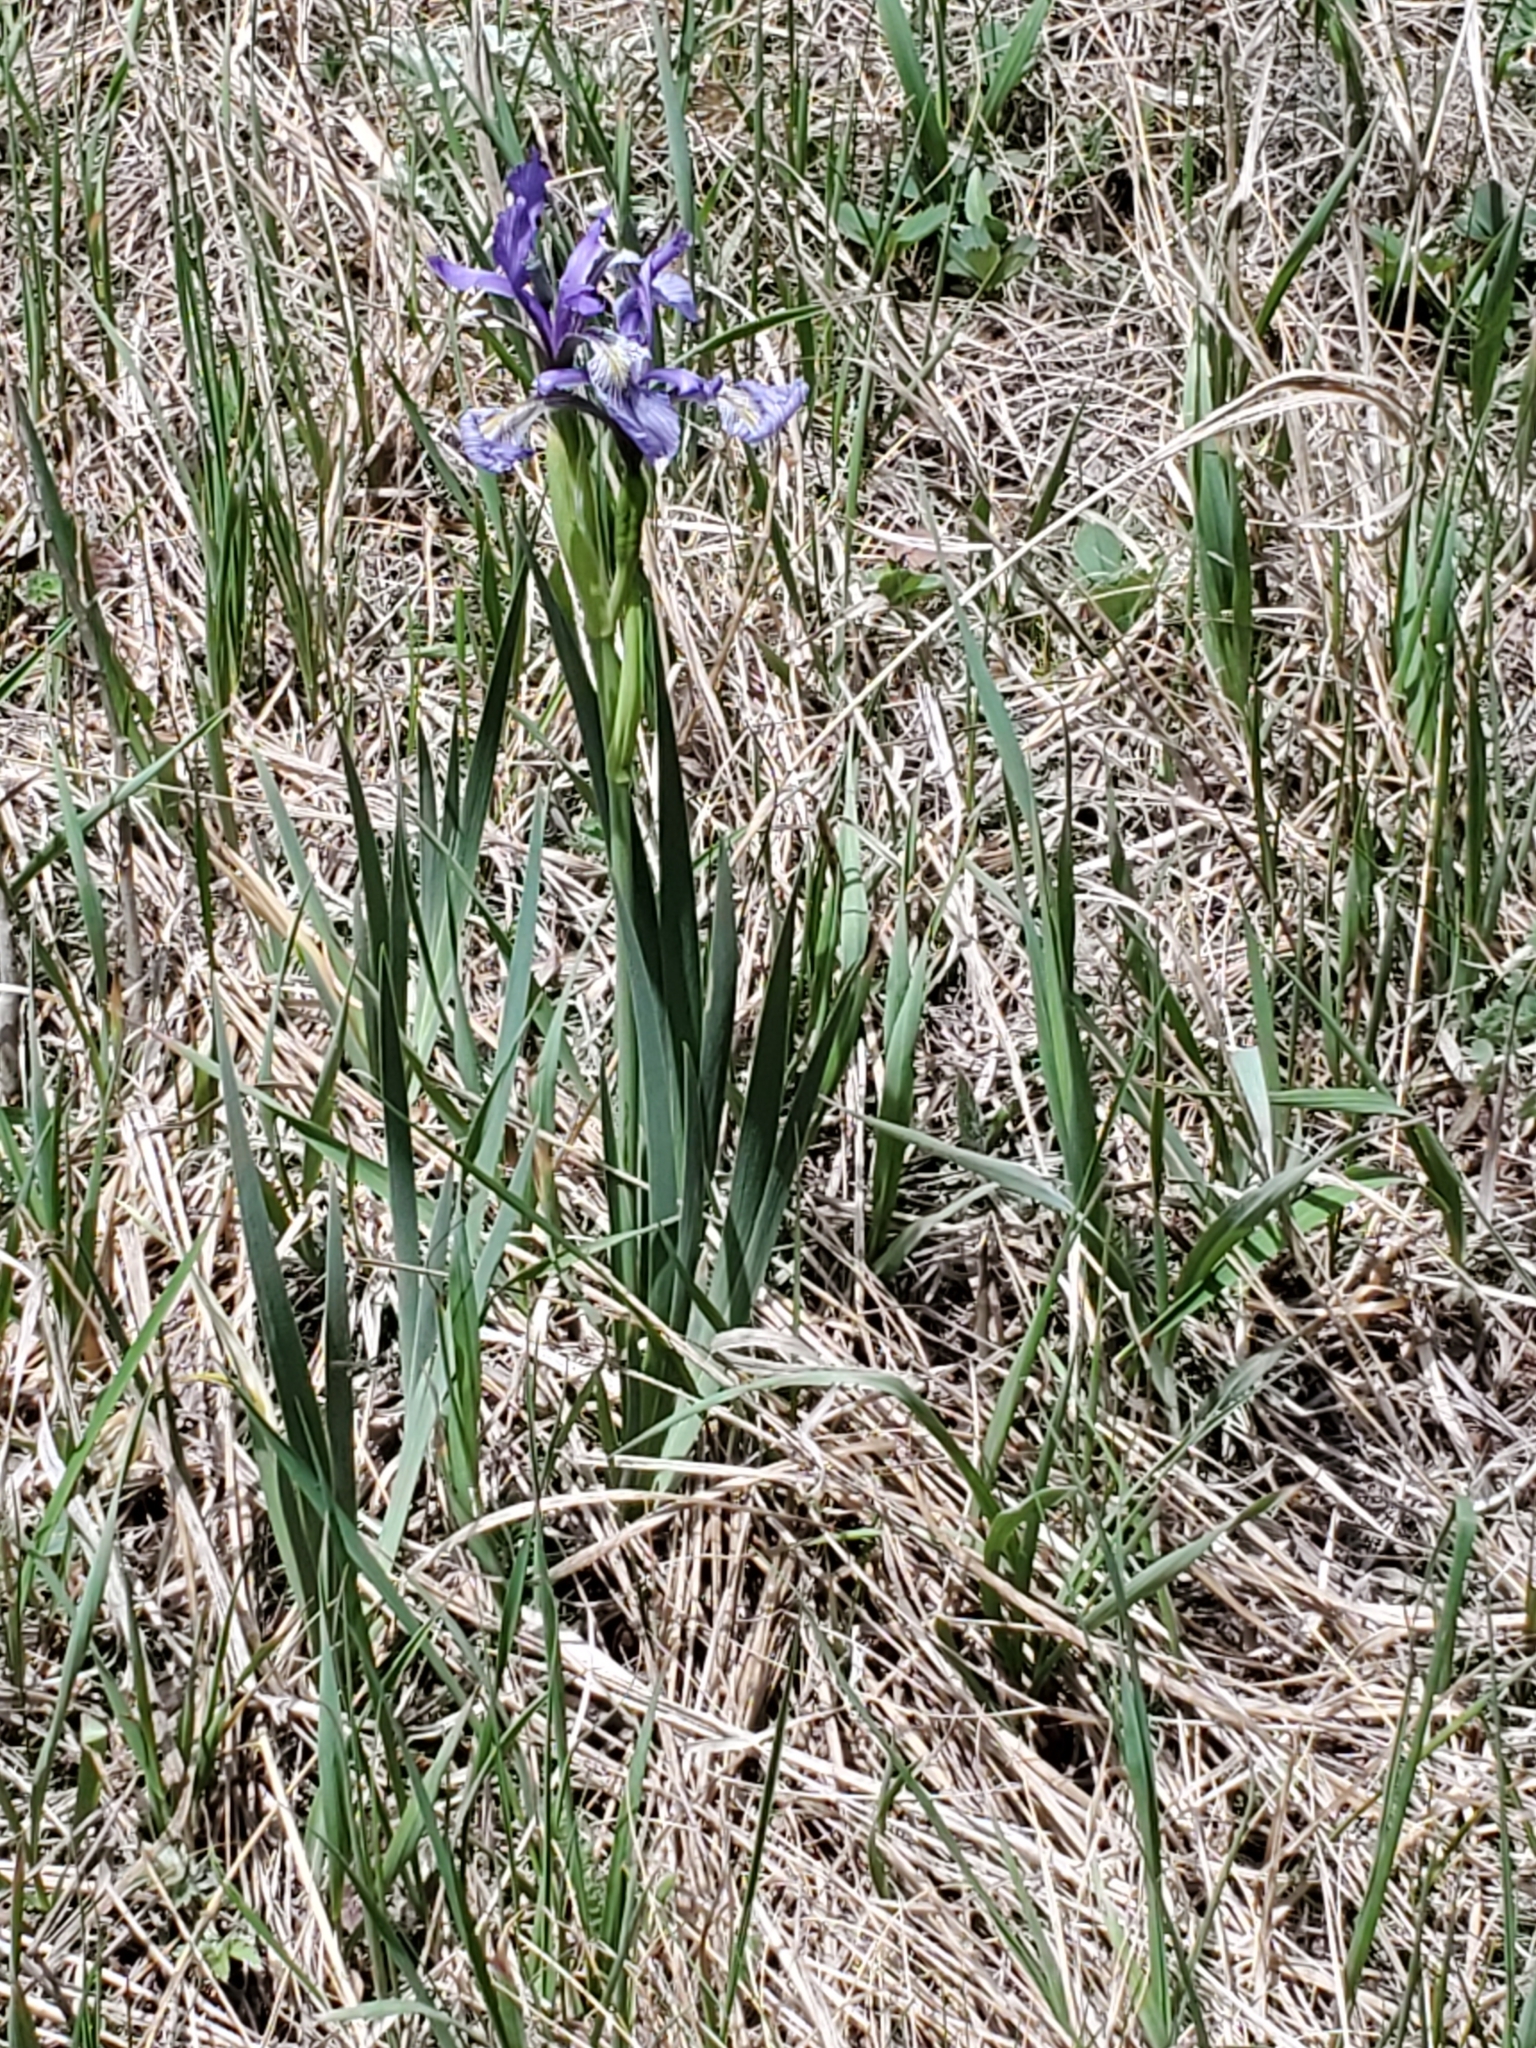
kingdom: Plantae
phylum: Tracheophyta
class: Liliopsida
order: Asparagales
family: Iridaceae
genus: Iris
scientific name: Iris missouriensis
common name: Rocky mountain iris
